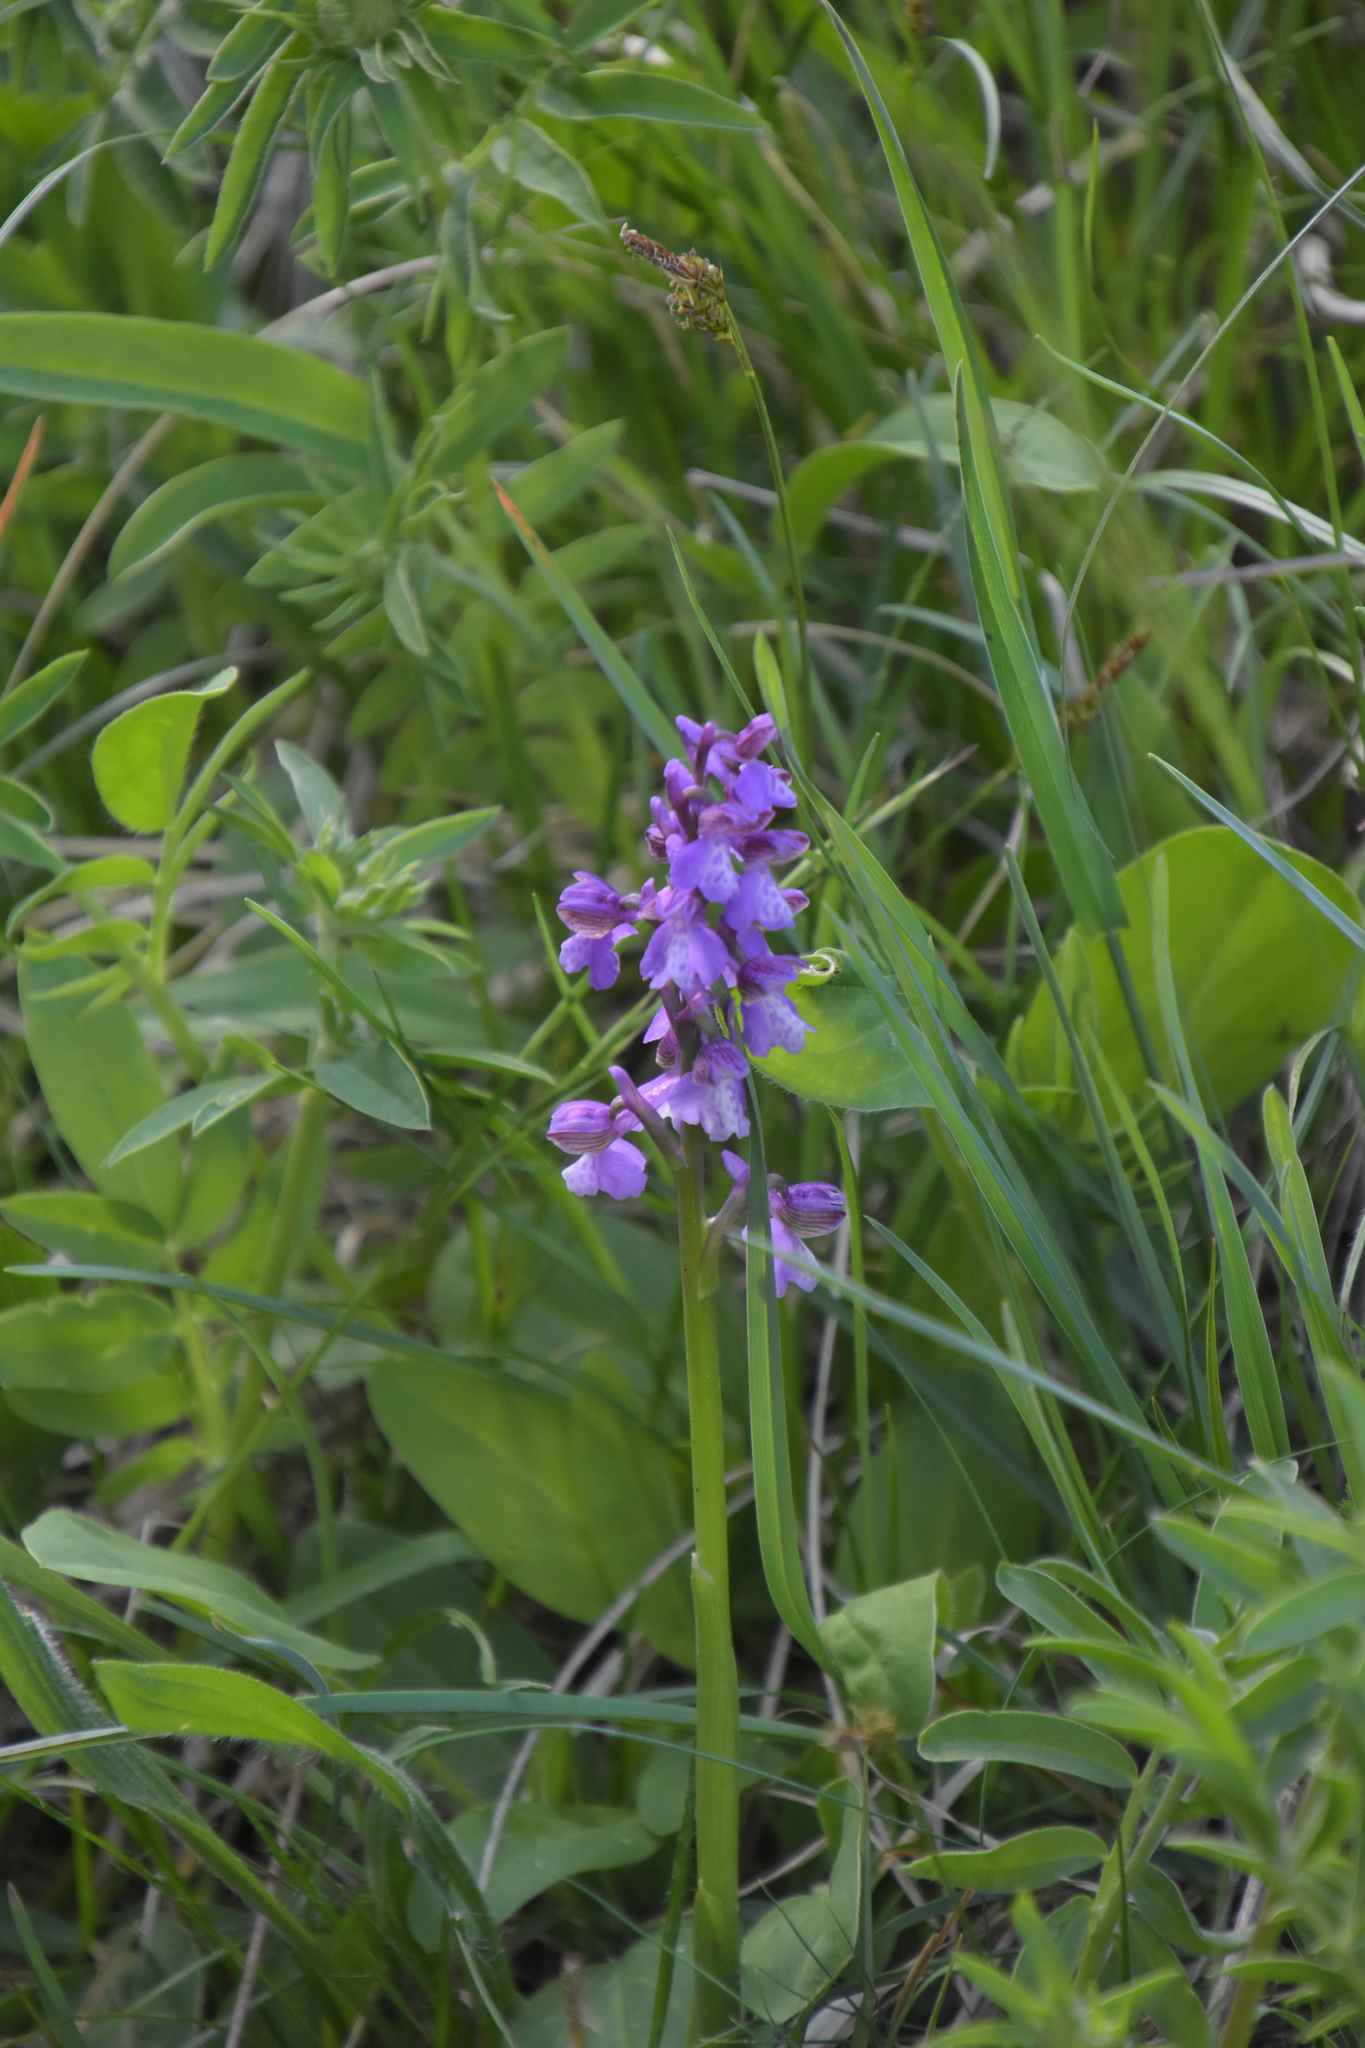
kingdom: Plantae
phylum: Tracheophyta
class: Liliopsida
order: Asparagales
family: Orchidaceae
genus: Anacamptis
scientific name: Anacamptis morio
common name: Green-winged orchid
